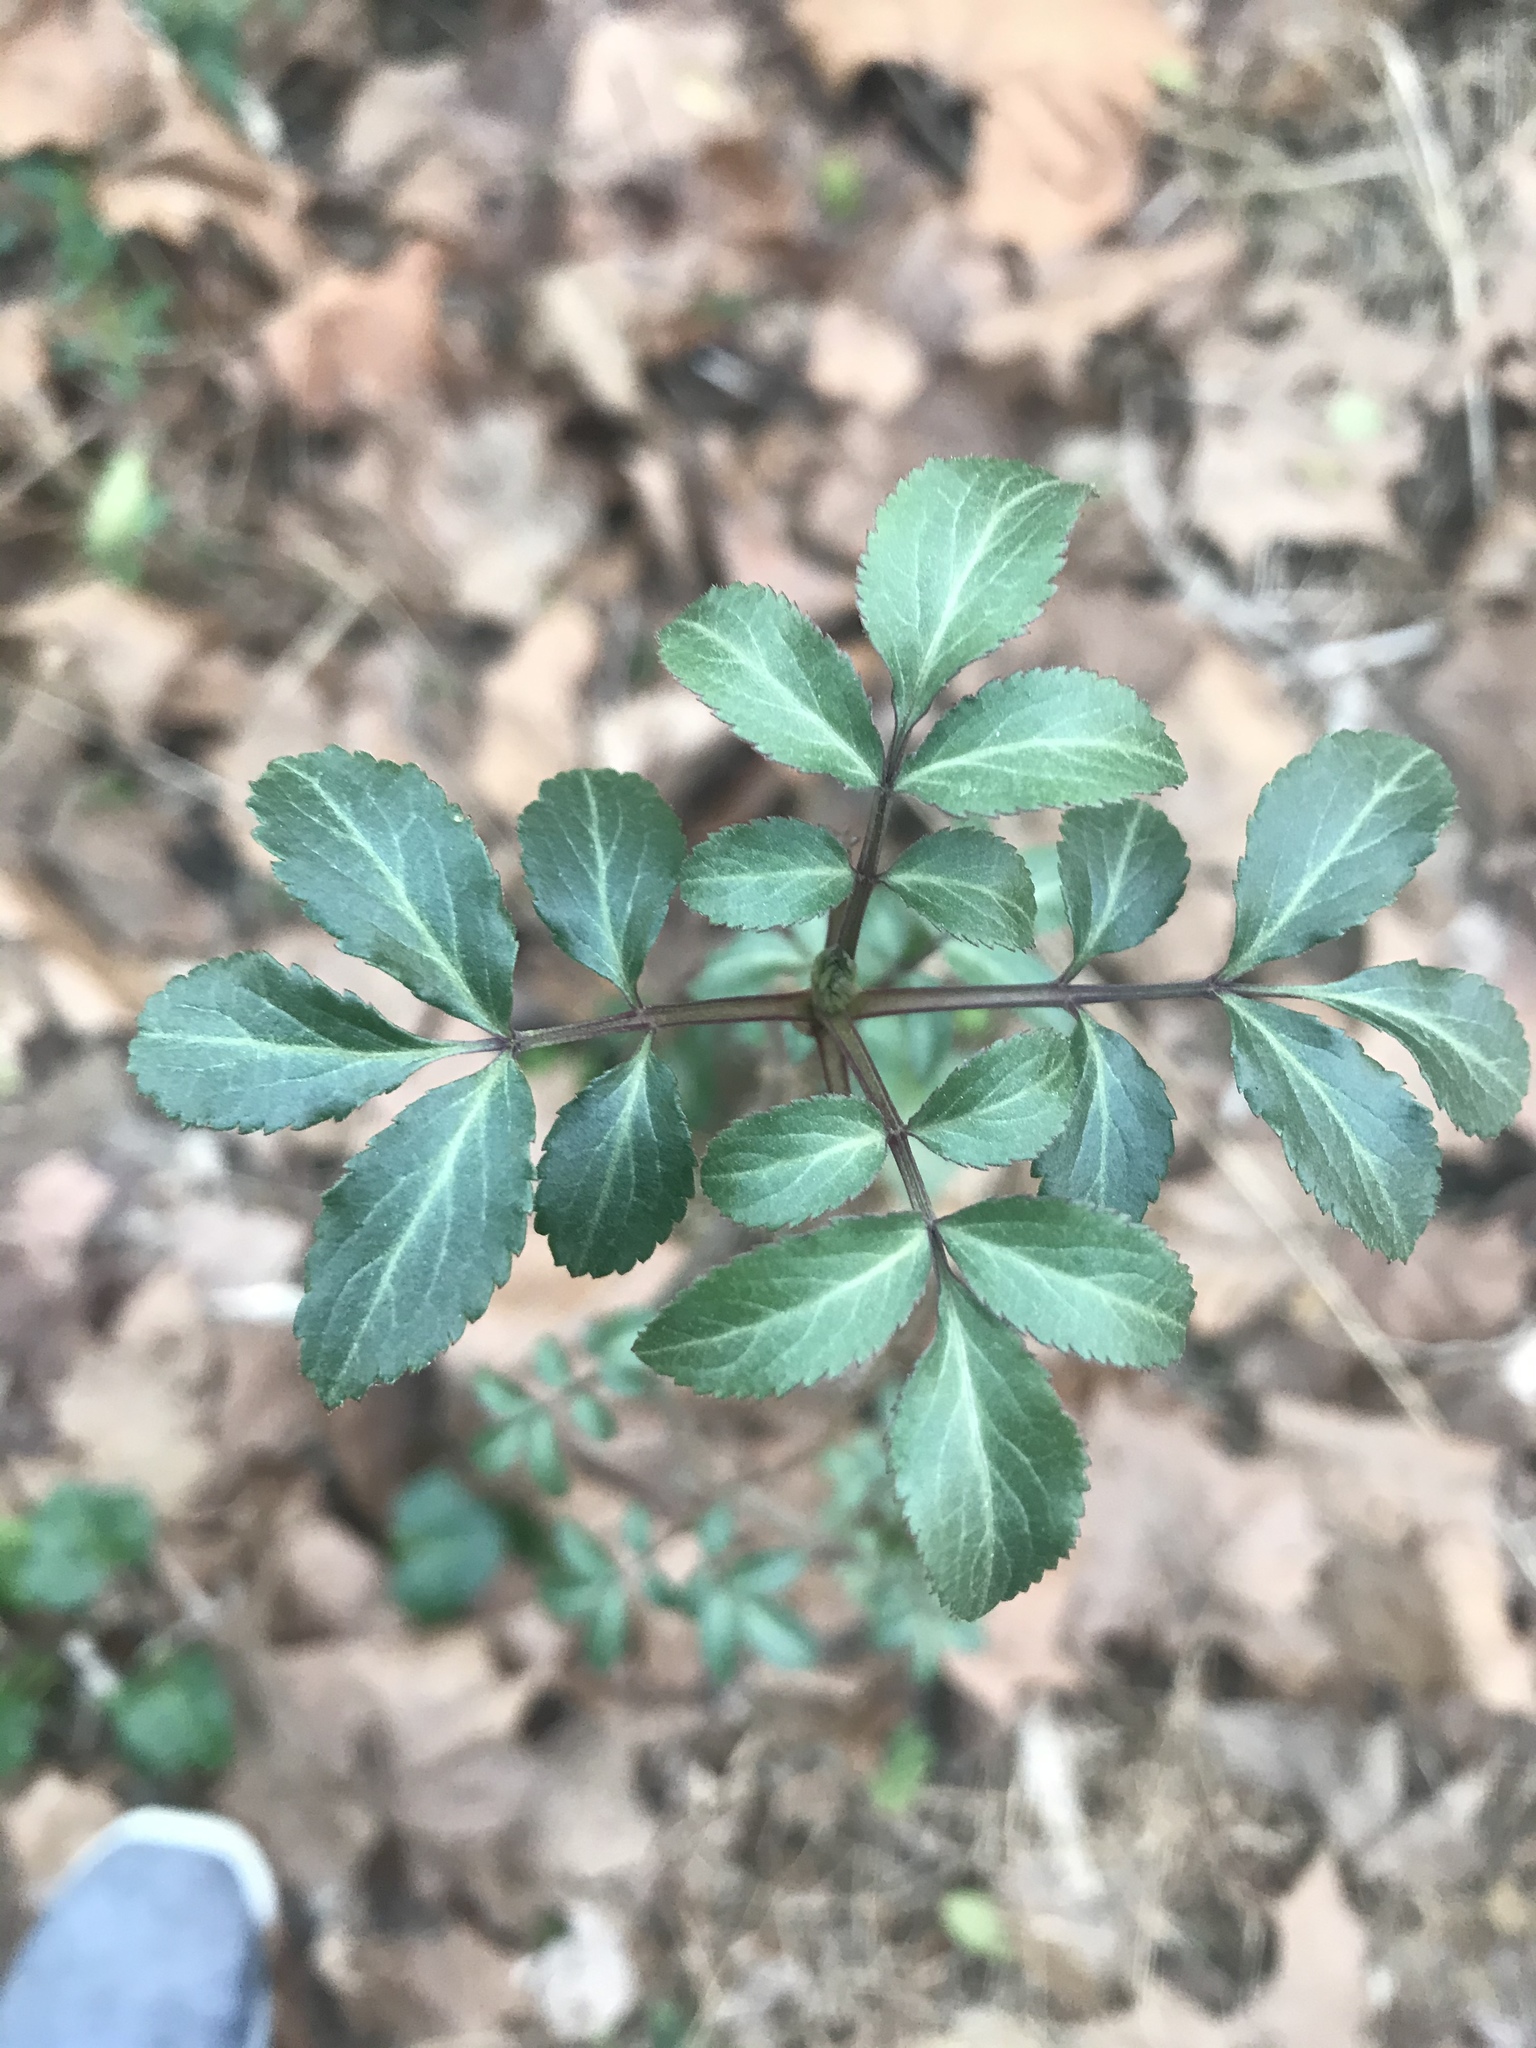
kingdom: Plantae
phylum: Tracheophyta
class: Magnoliopsida
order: Dipsacales
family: Viburnaceae
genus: Sambucus
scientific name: Sambucus canadensis
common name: American elder
